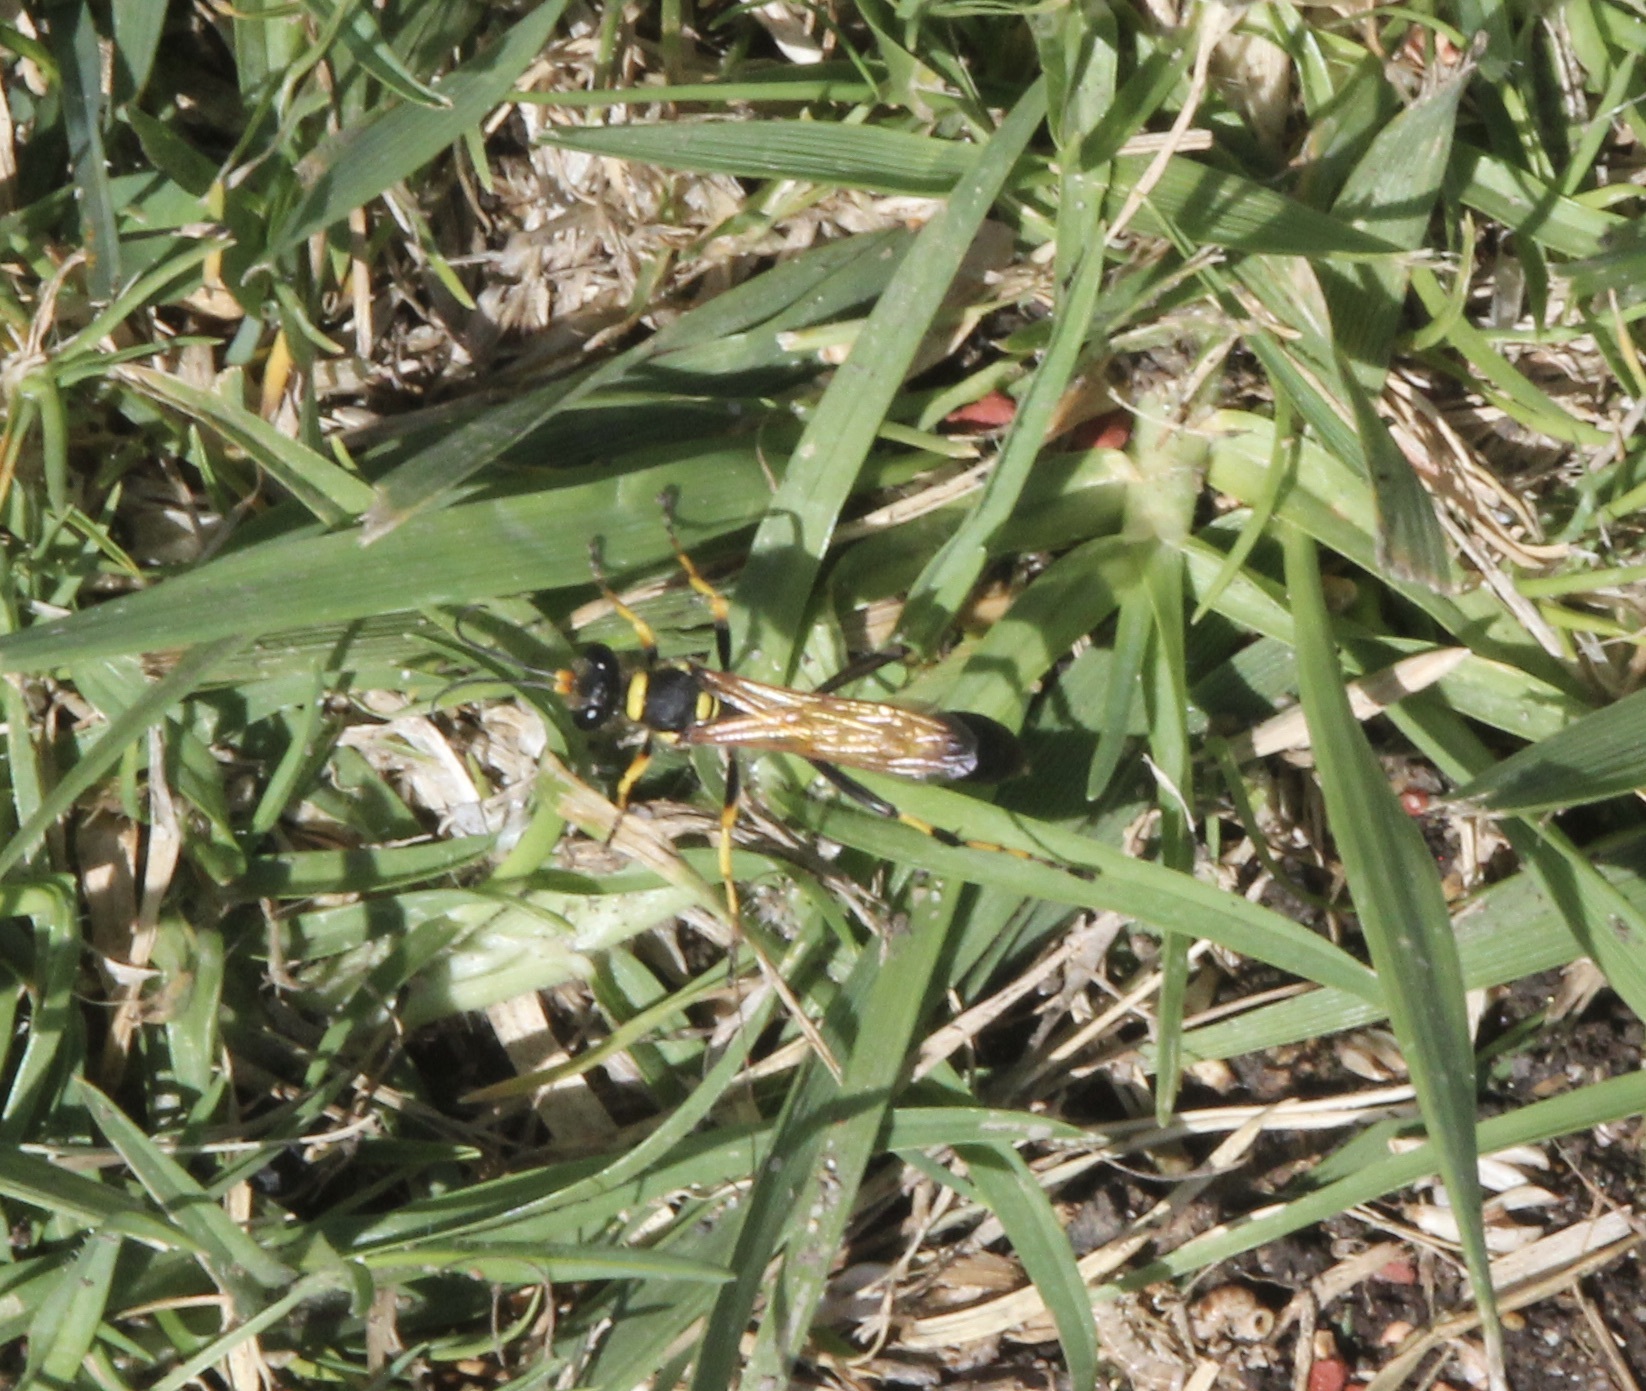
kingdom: Animalia
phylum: Arthropoda
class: Insecta
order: Lepidoptera
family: Hesperiidae
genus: Hylephila
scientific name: Hylephila phyleus
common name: Fiery skipper
